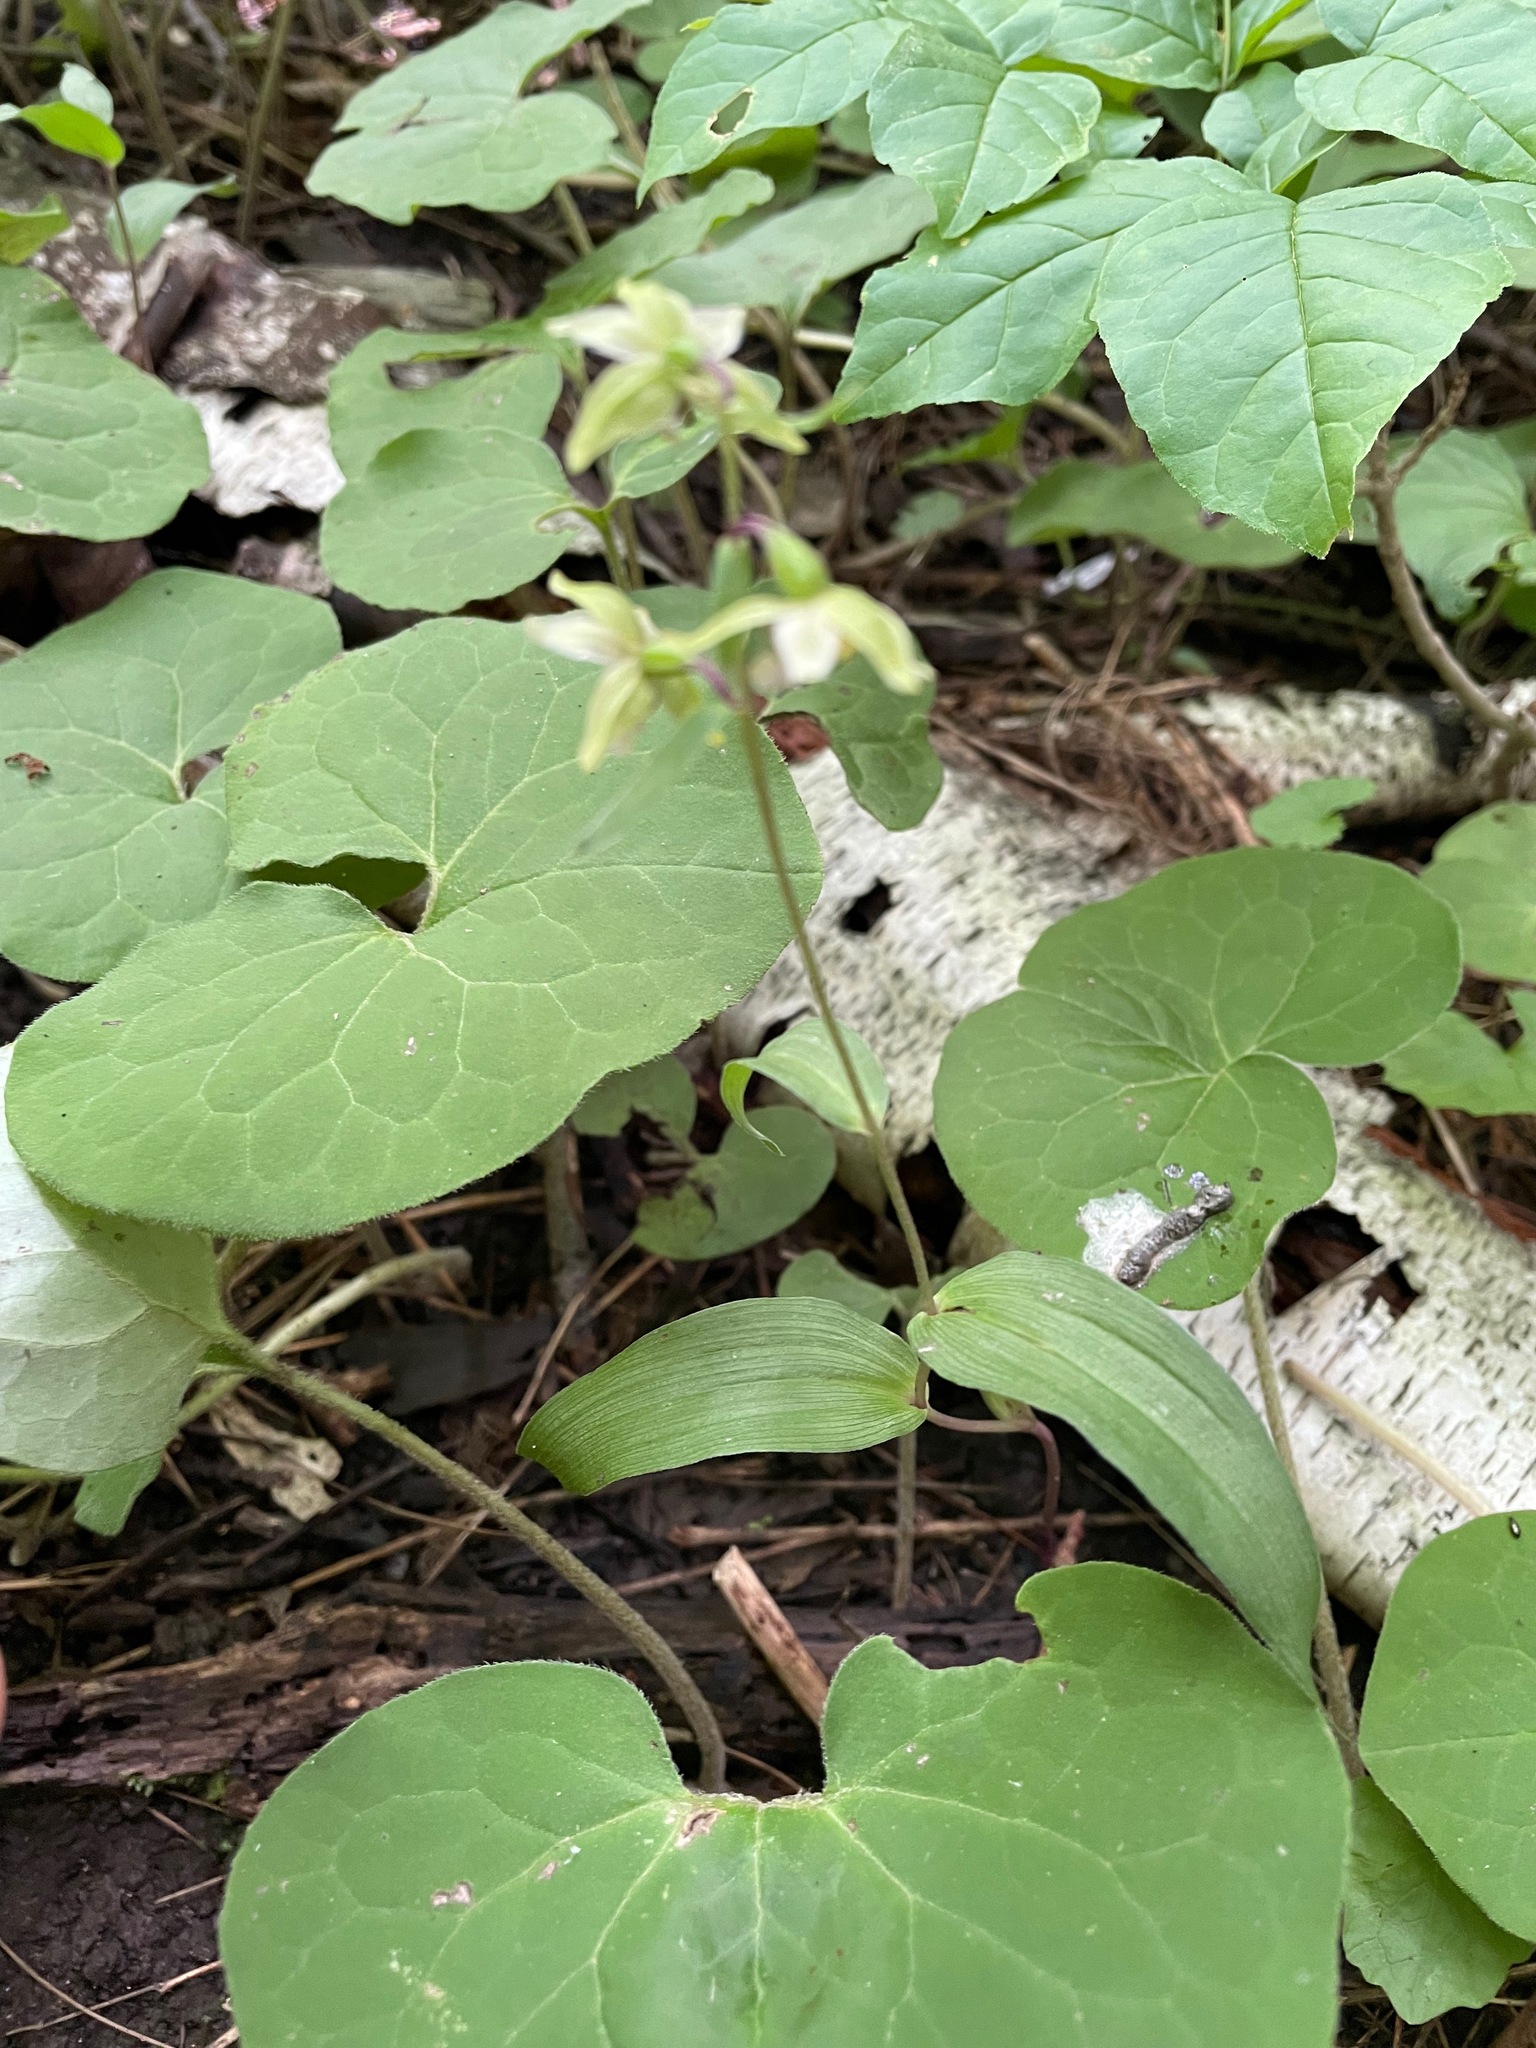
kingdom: Plantae
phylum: Tracheophyta
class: Liliopsida
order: Asparagales
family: Orchidaceae
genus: Epipactis
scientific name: Epipactis helleborine
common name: Broad-leaved helleborine
